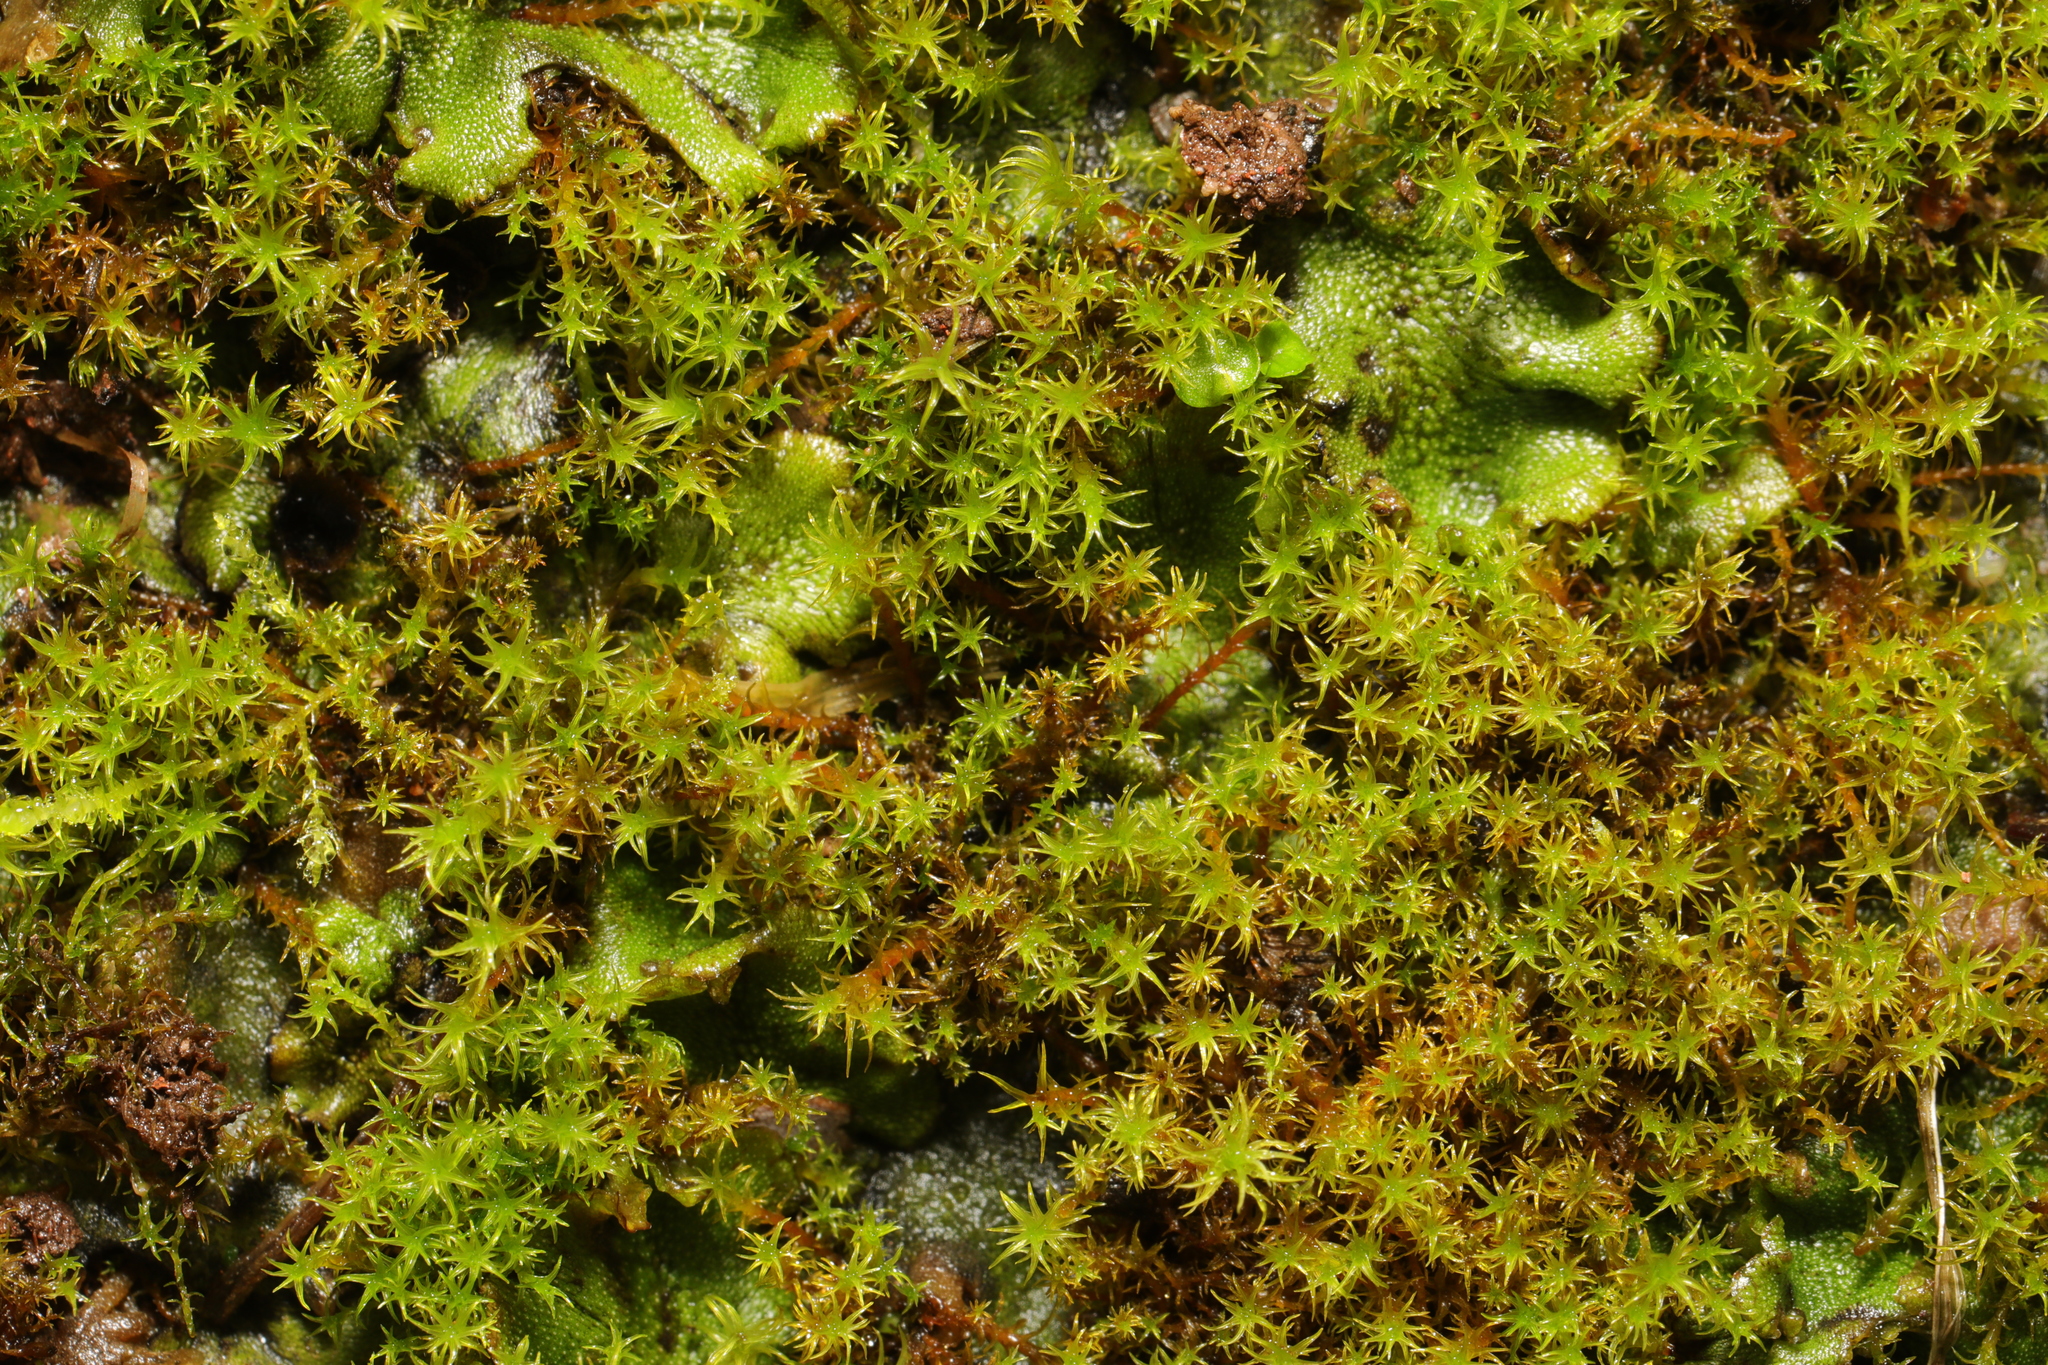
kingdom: Plantae
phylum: Bryophyta
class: Bryopsida
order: Pottiales
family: Pottiaceae
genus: Vinealobryum
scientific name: Vinealobryum insulanum
